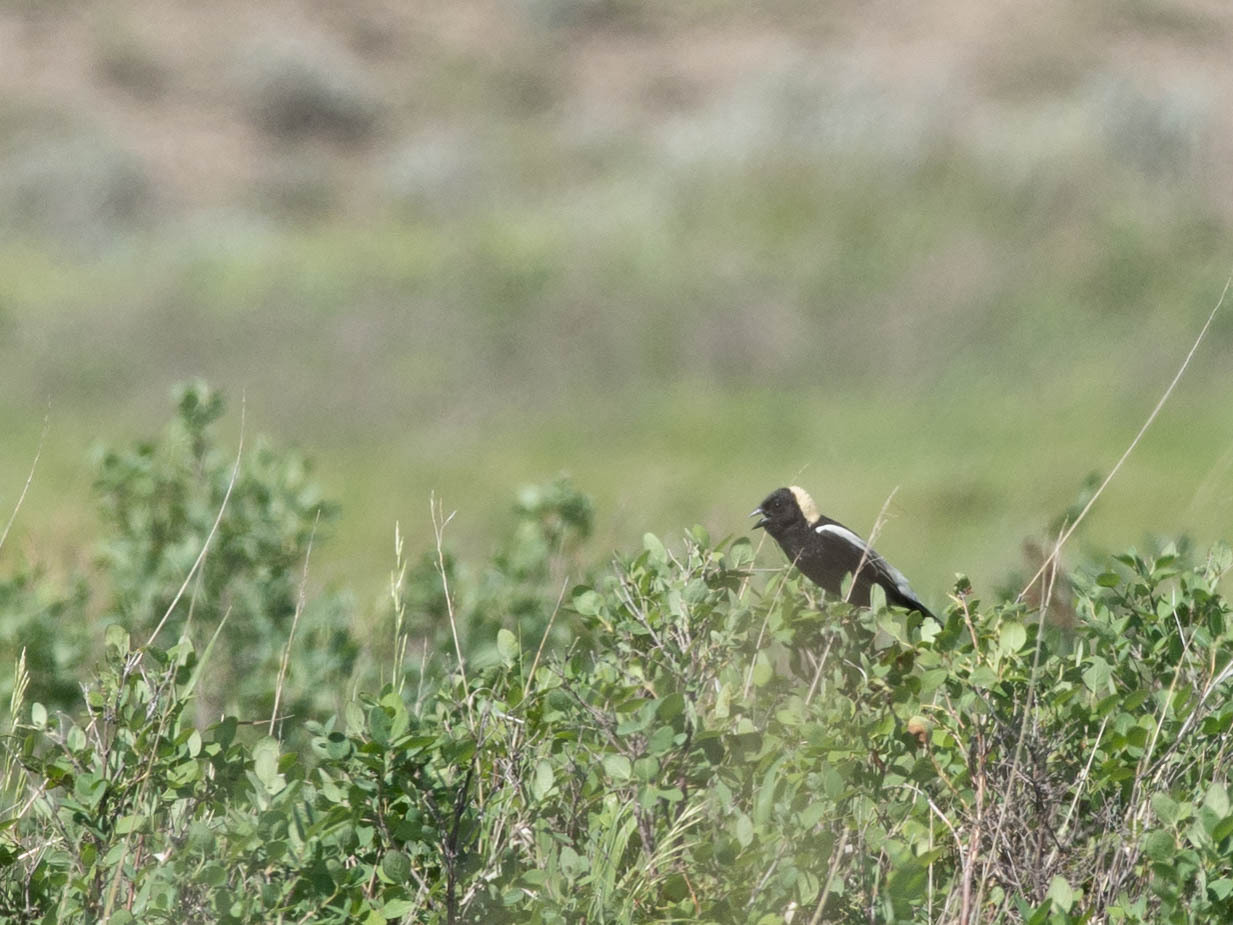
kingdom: Animalia
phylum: Chordata
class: Aves
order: Passeriformes
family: Icteridae
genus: Dolichonyx
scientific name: Dolichonyx oryzivorus
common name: Bobolink
